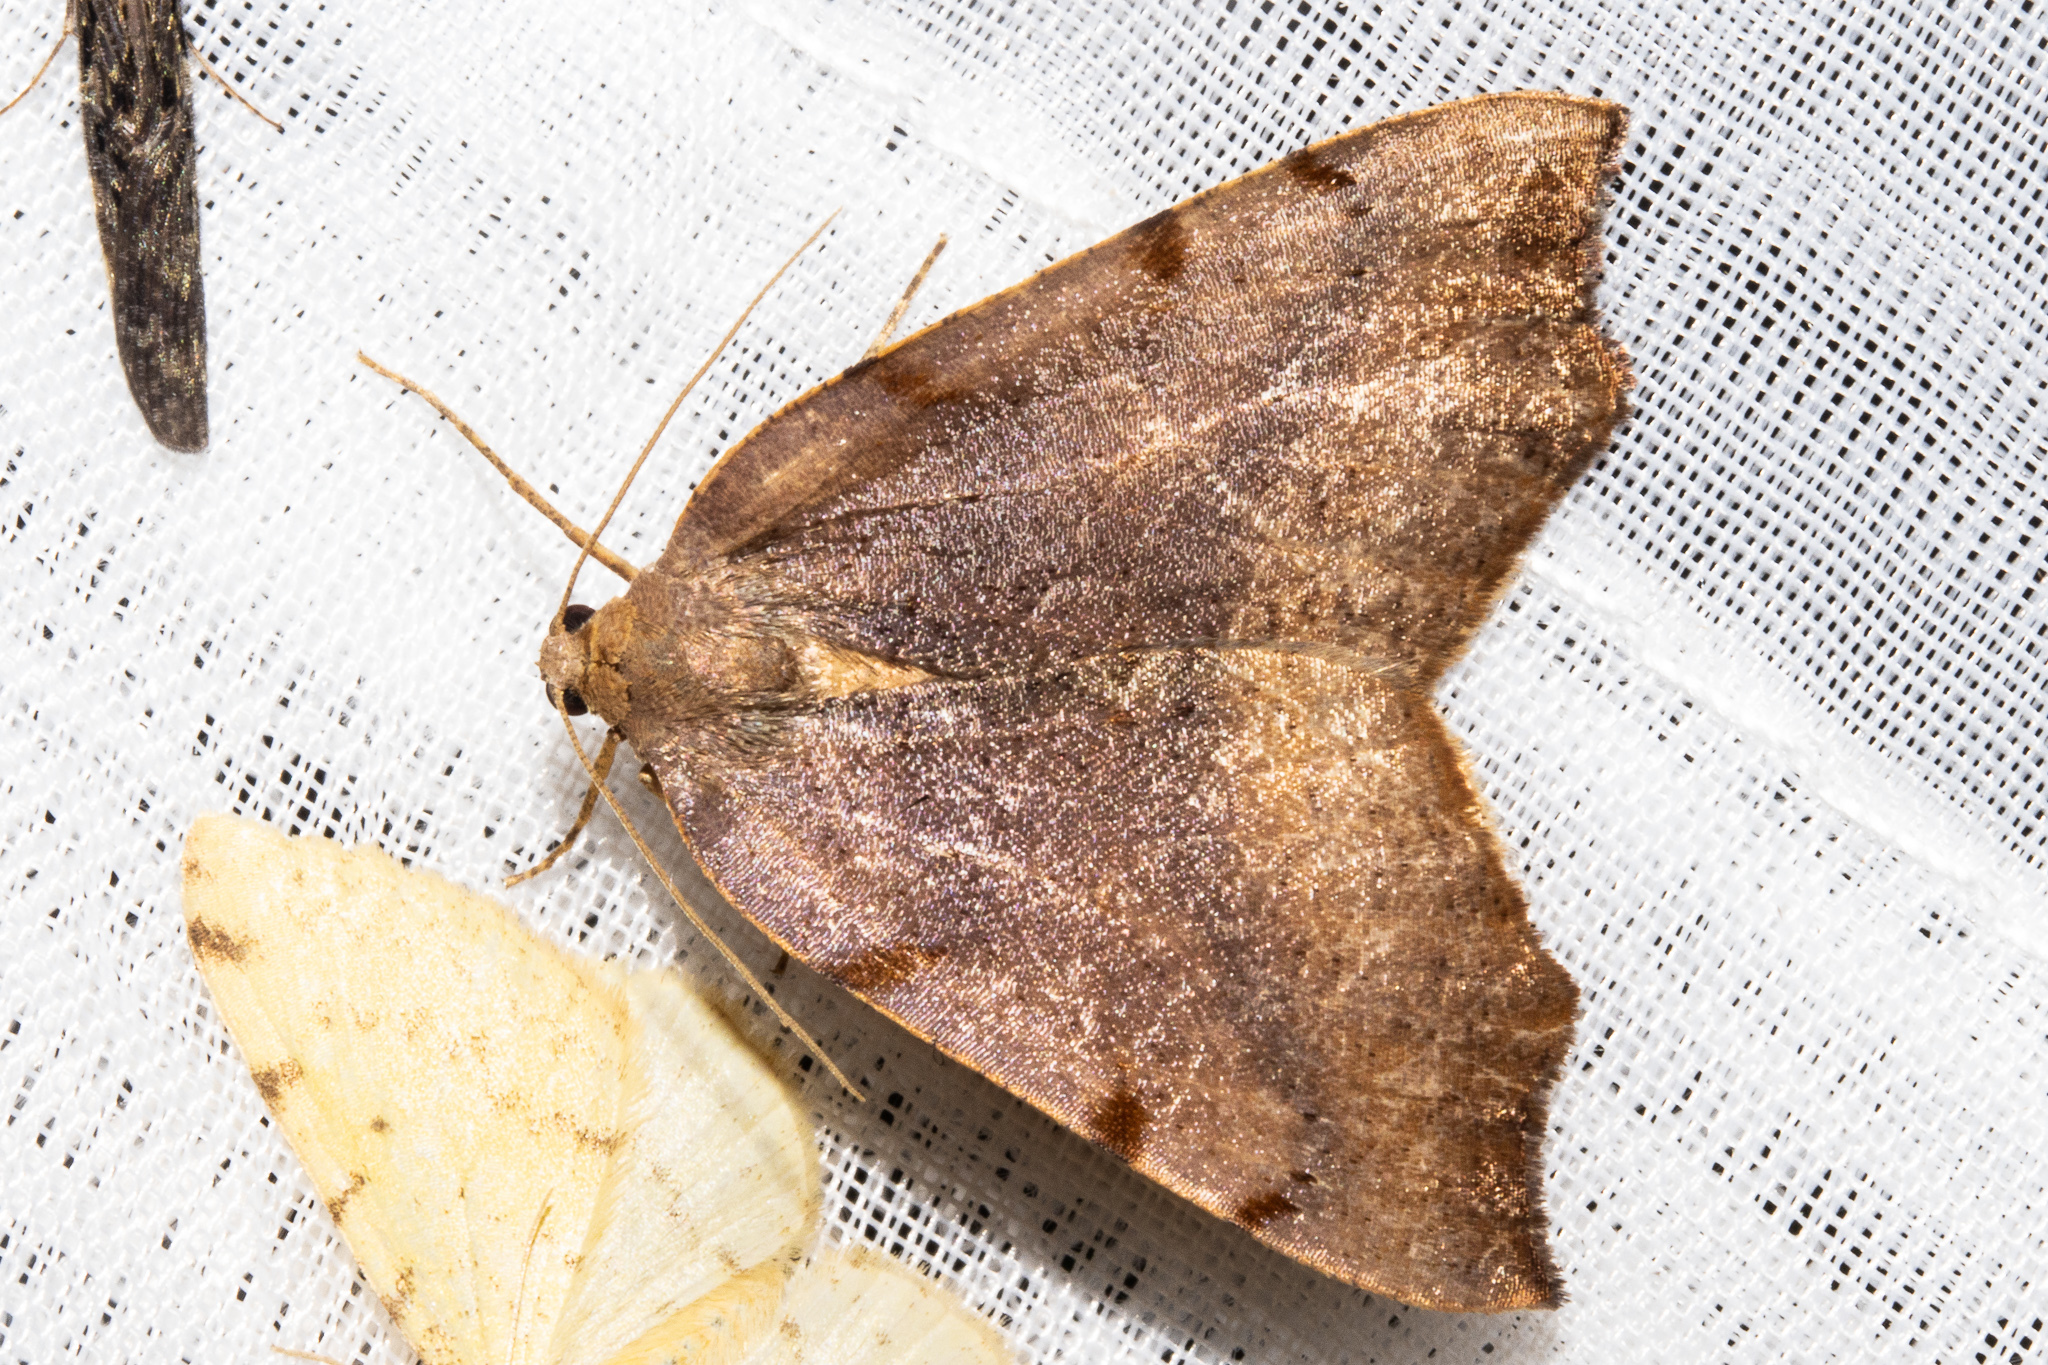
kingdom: Animalia
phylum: Arthropoda
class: Insecta
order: Lepidoptera
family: Geometridae
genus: Sestra
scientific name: Sestra flexata
